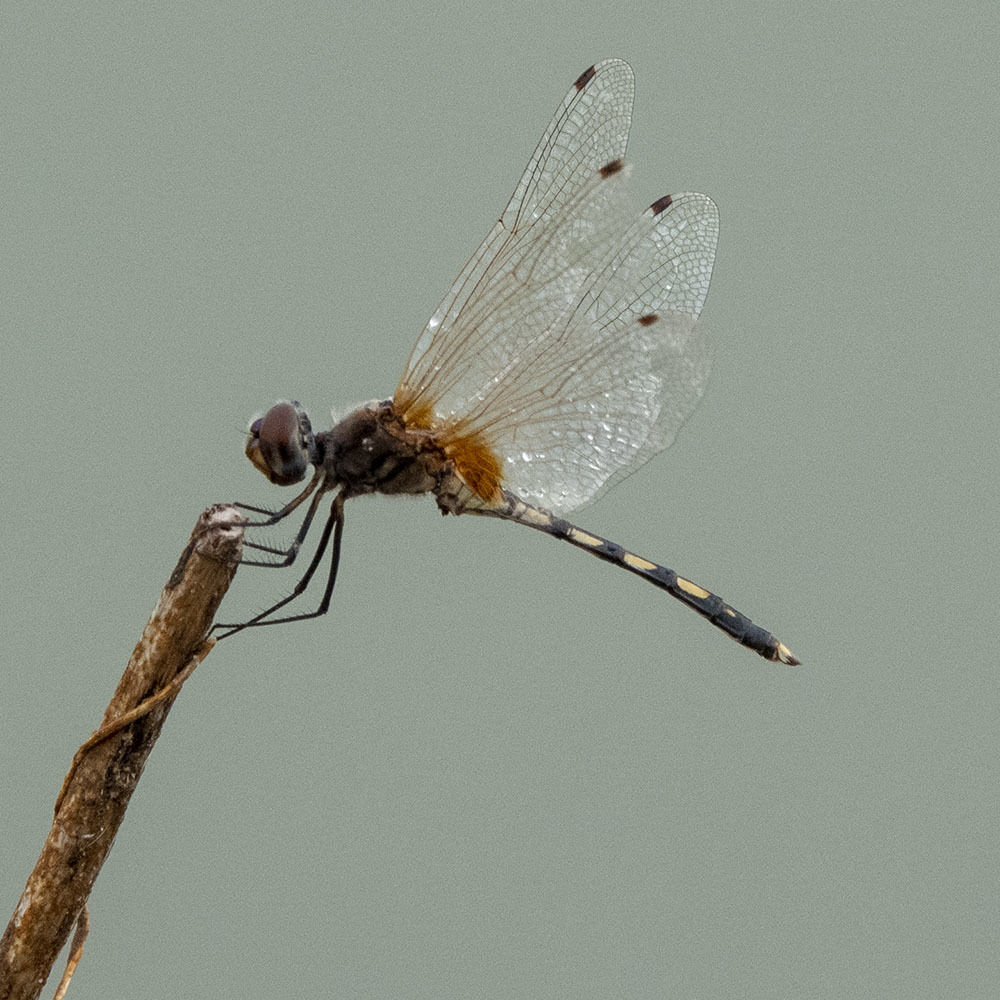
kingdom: Animalia
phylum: Arthropoda
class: Insecta
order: Odonata
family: Libellulidae
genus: Trithemis
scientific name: Trithemis pallidinervis
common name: Dancing dropwing
